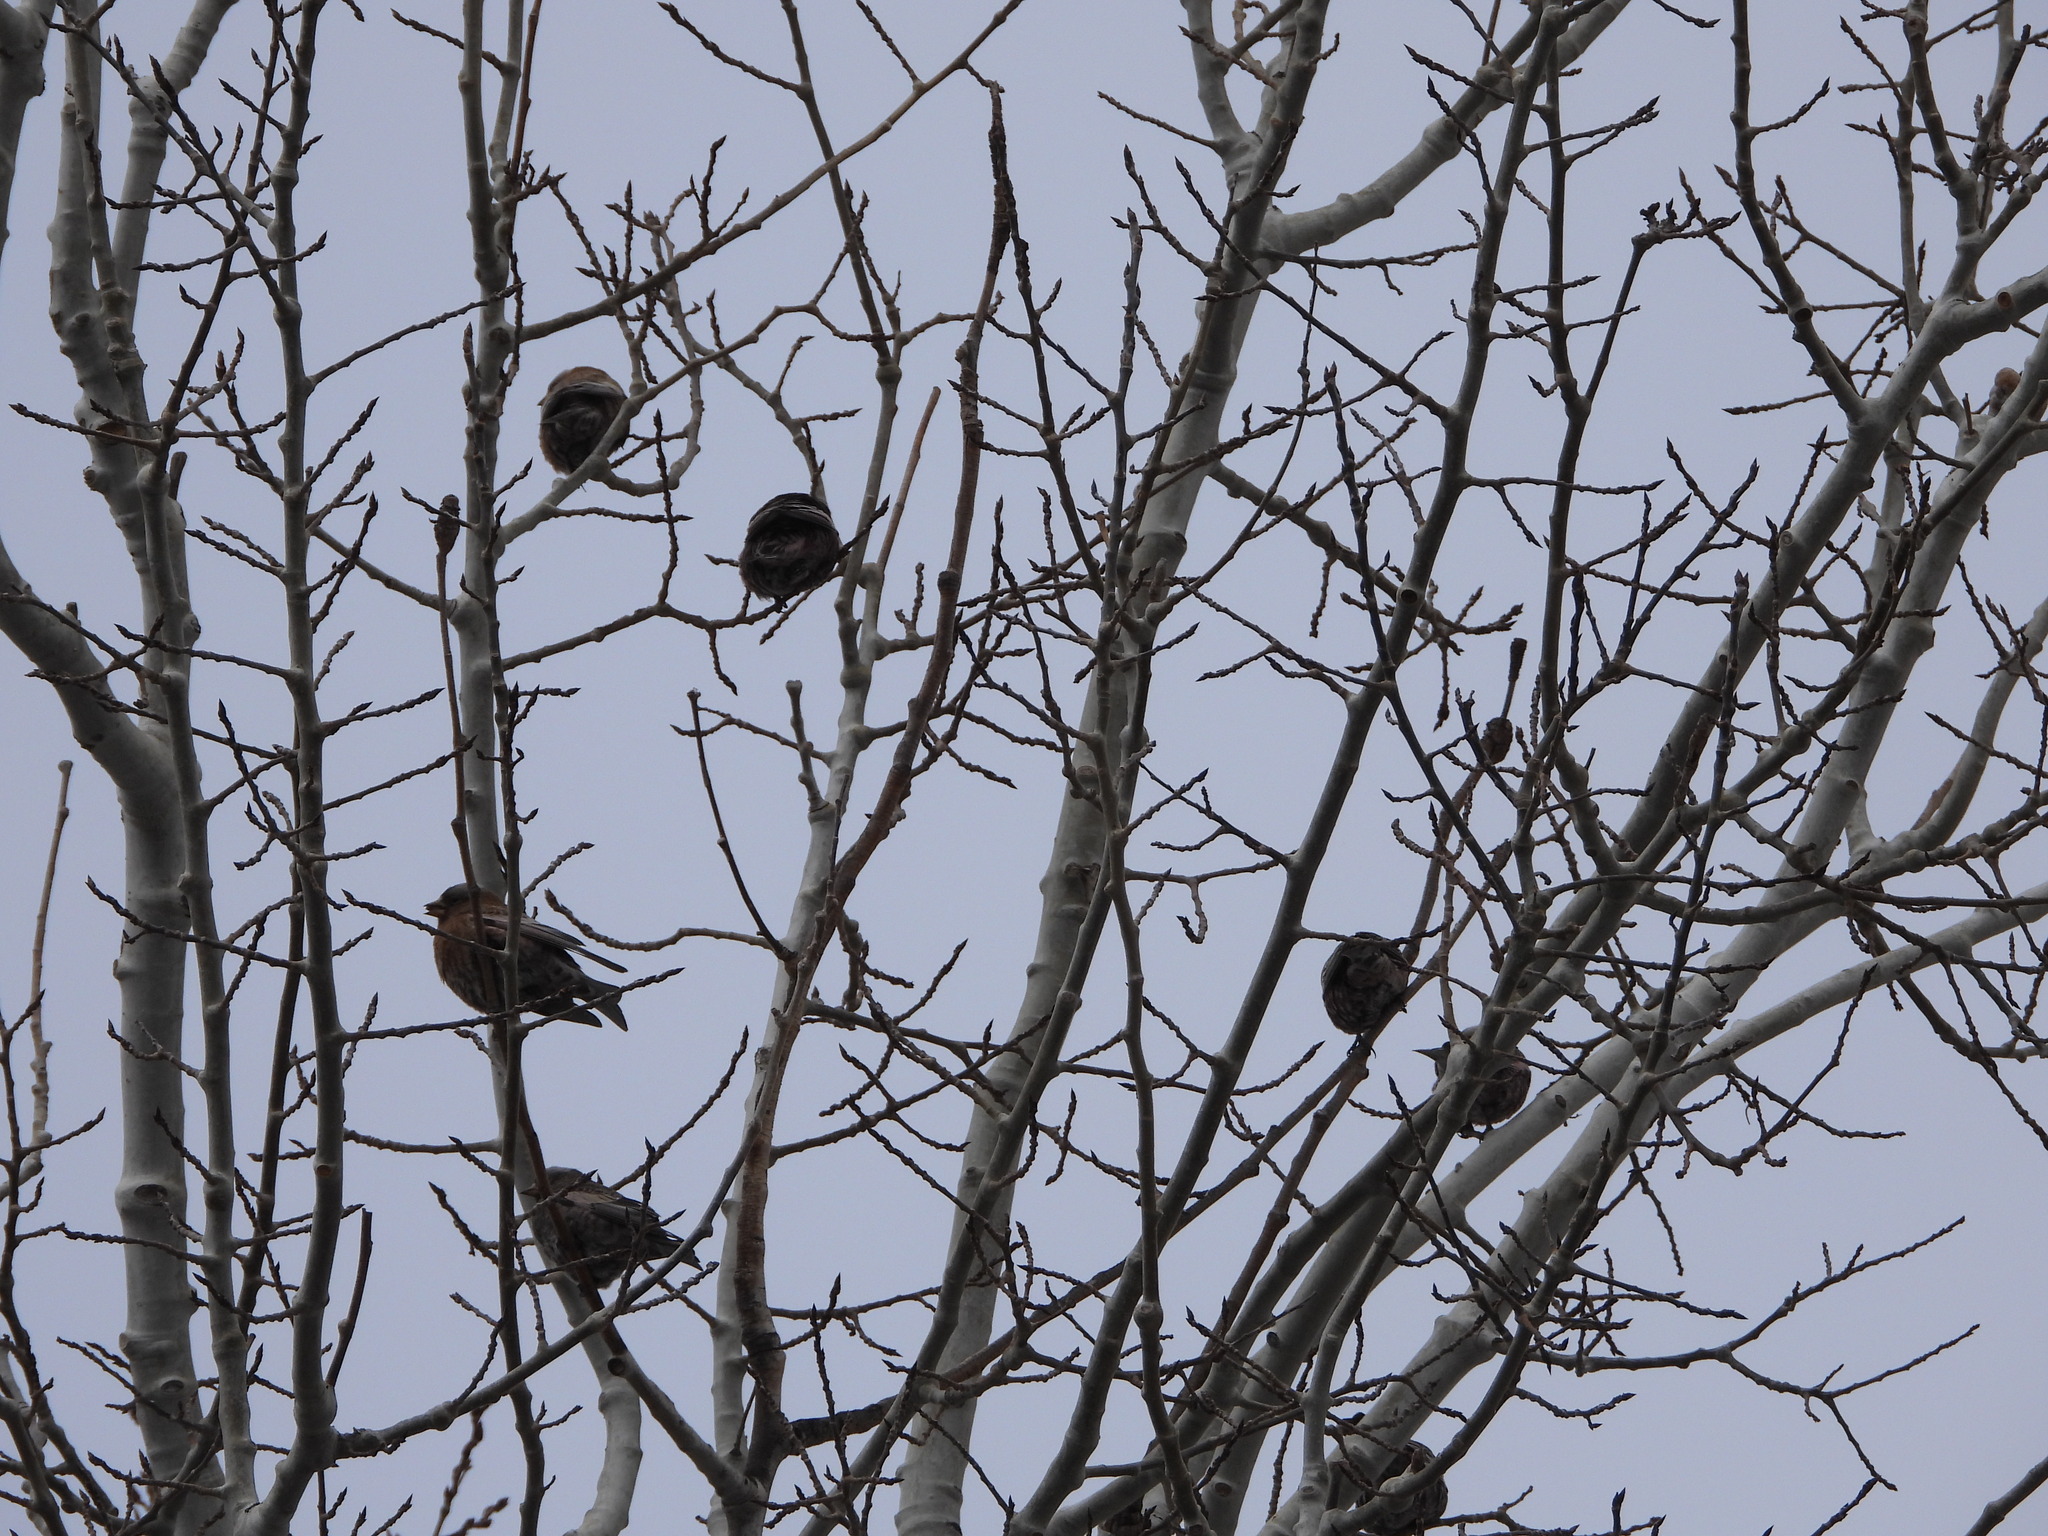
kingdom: Animalia
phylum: Chordata
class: Aves
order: Passeriformes
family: Fringillidae
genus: Leucosticte
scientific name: Leucosticte atrata
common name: Black rosy-finch
